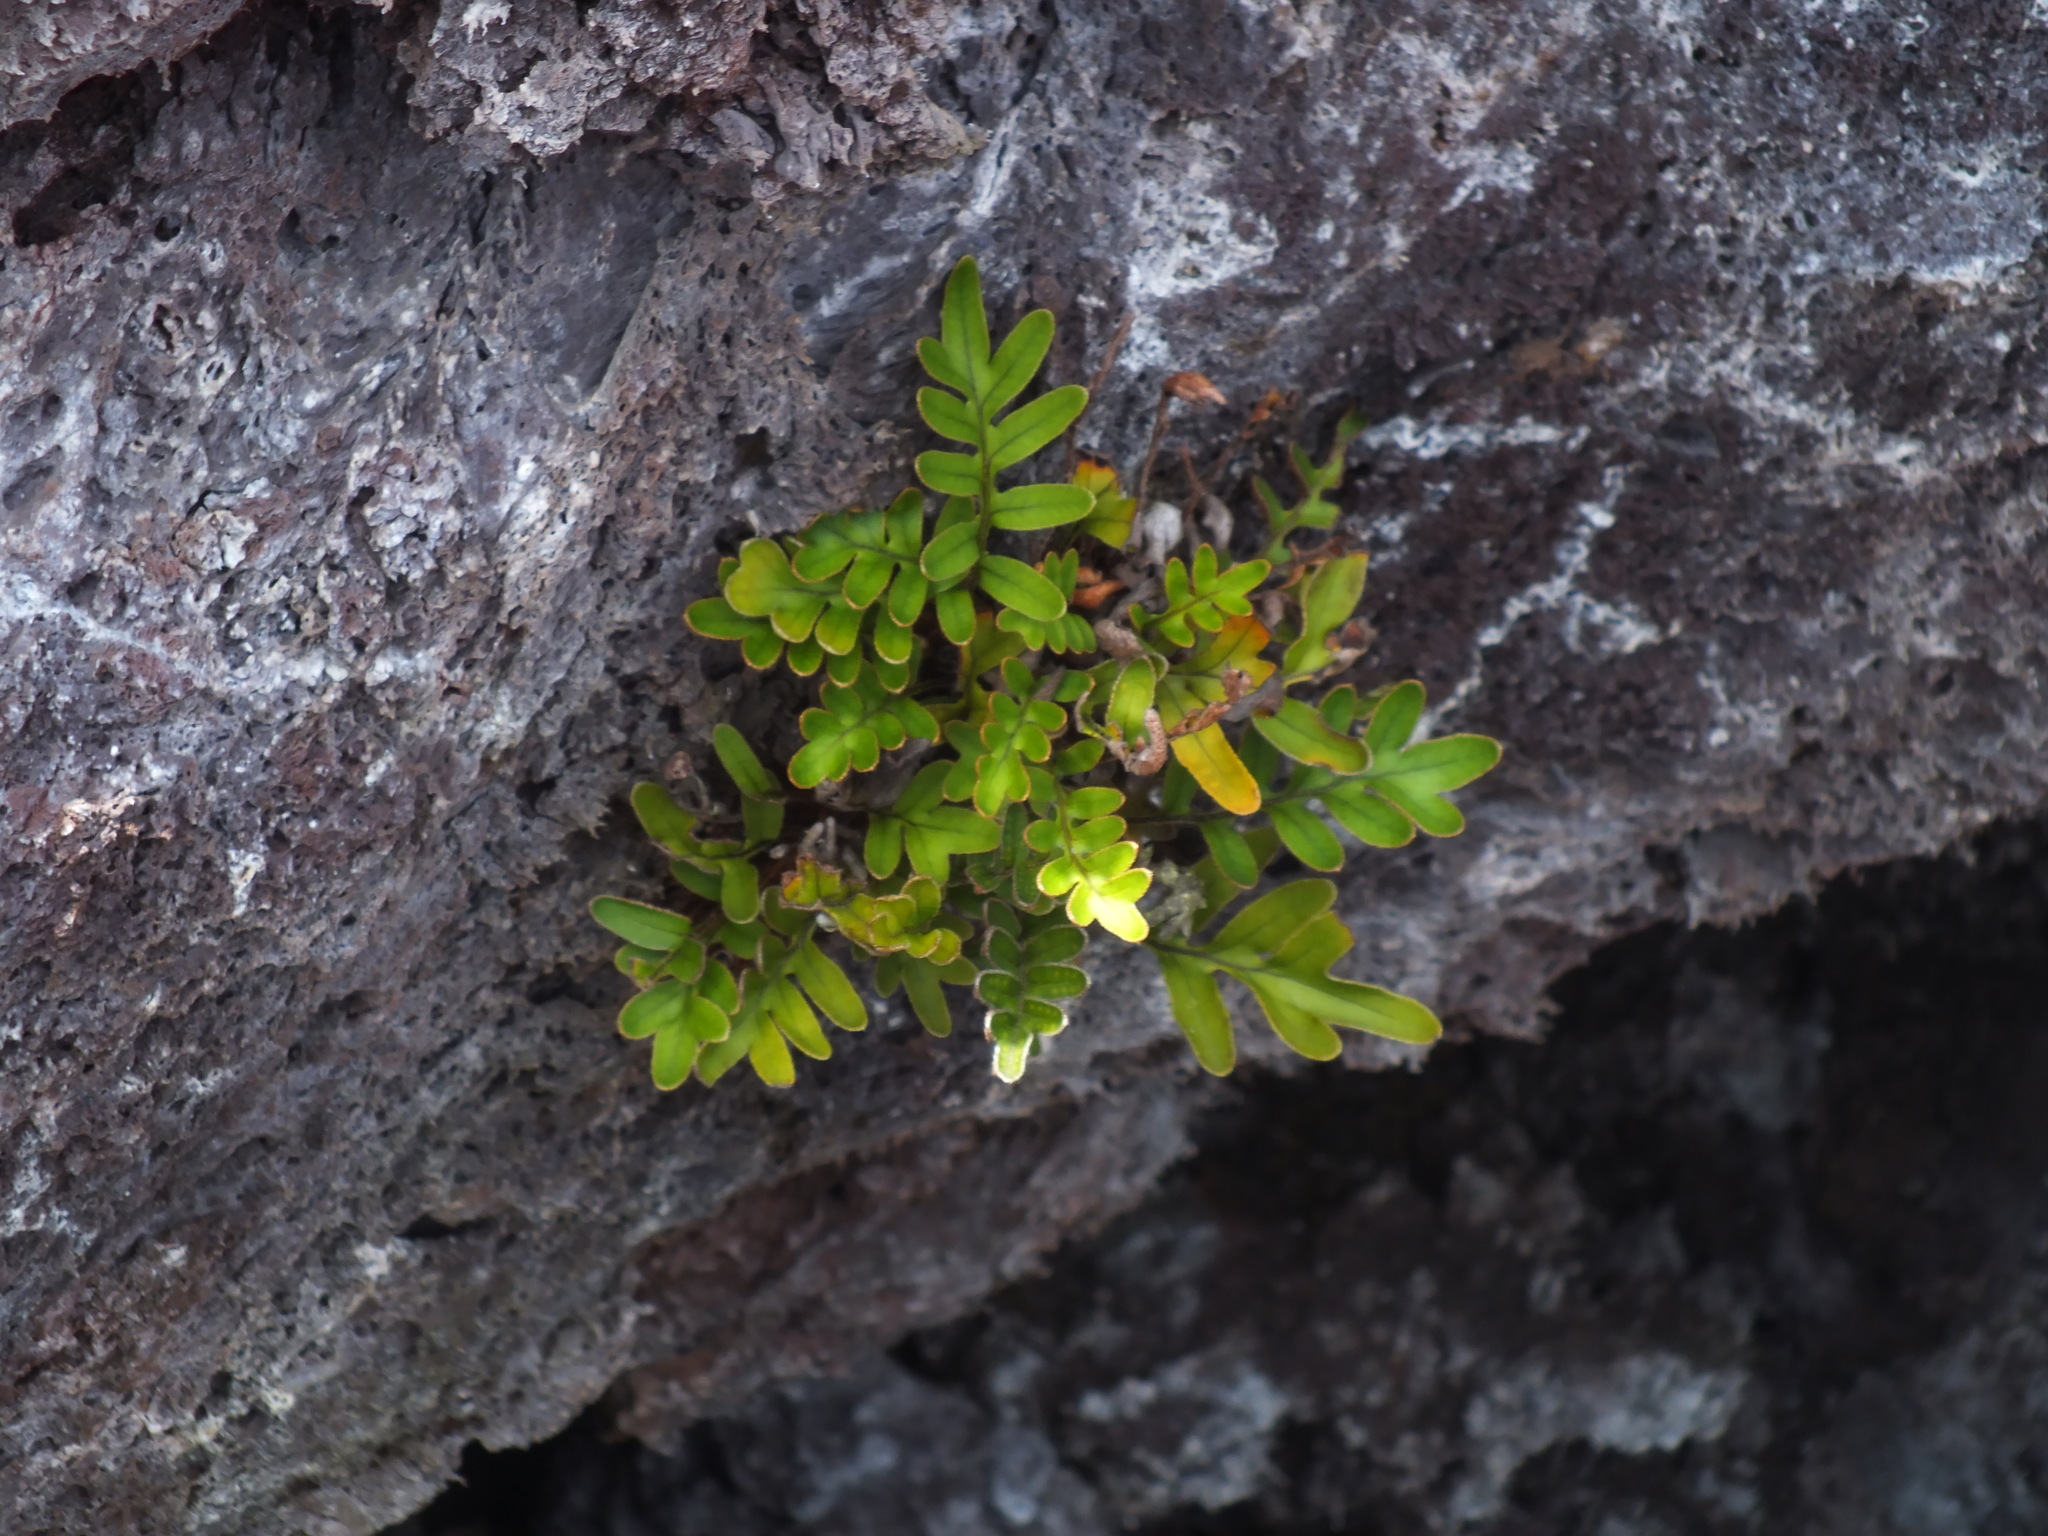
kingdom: Plantae
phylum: Tracheophyta
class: Polypodiopsida
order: Polypodiales
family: Polypodiaceae
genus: Pleopeltis
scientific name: Pleopeltis insularum
